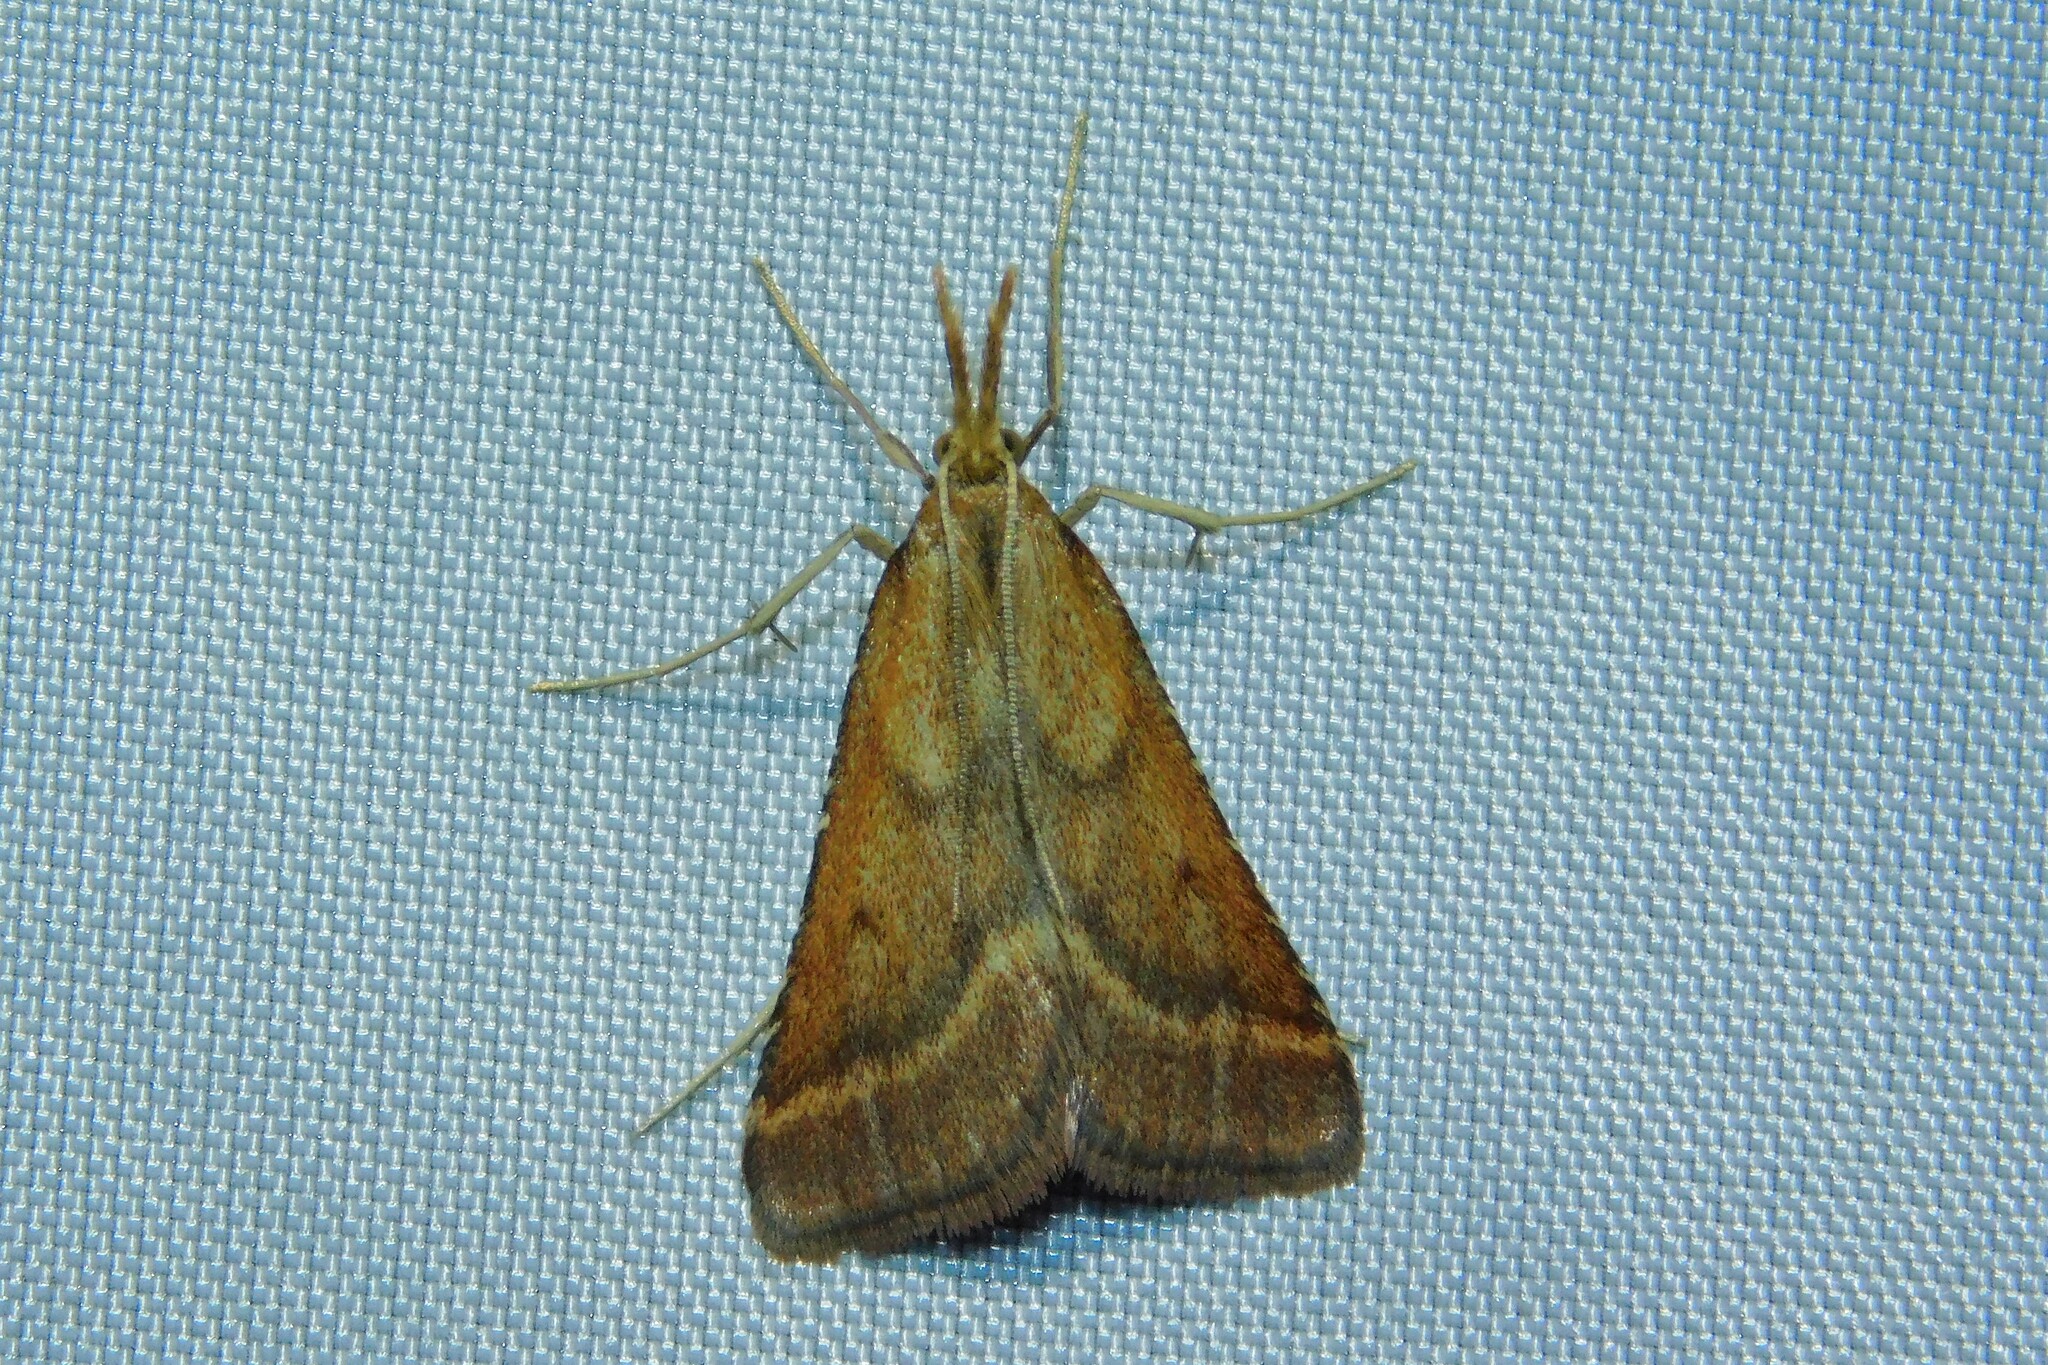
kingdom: Animalia
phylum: Arthropoda
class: Insecta
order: Lepidoptera
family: Pyralidae
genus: Synaphe
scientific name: Synaphe punctalis
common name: Long-legged tabby
